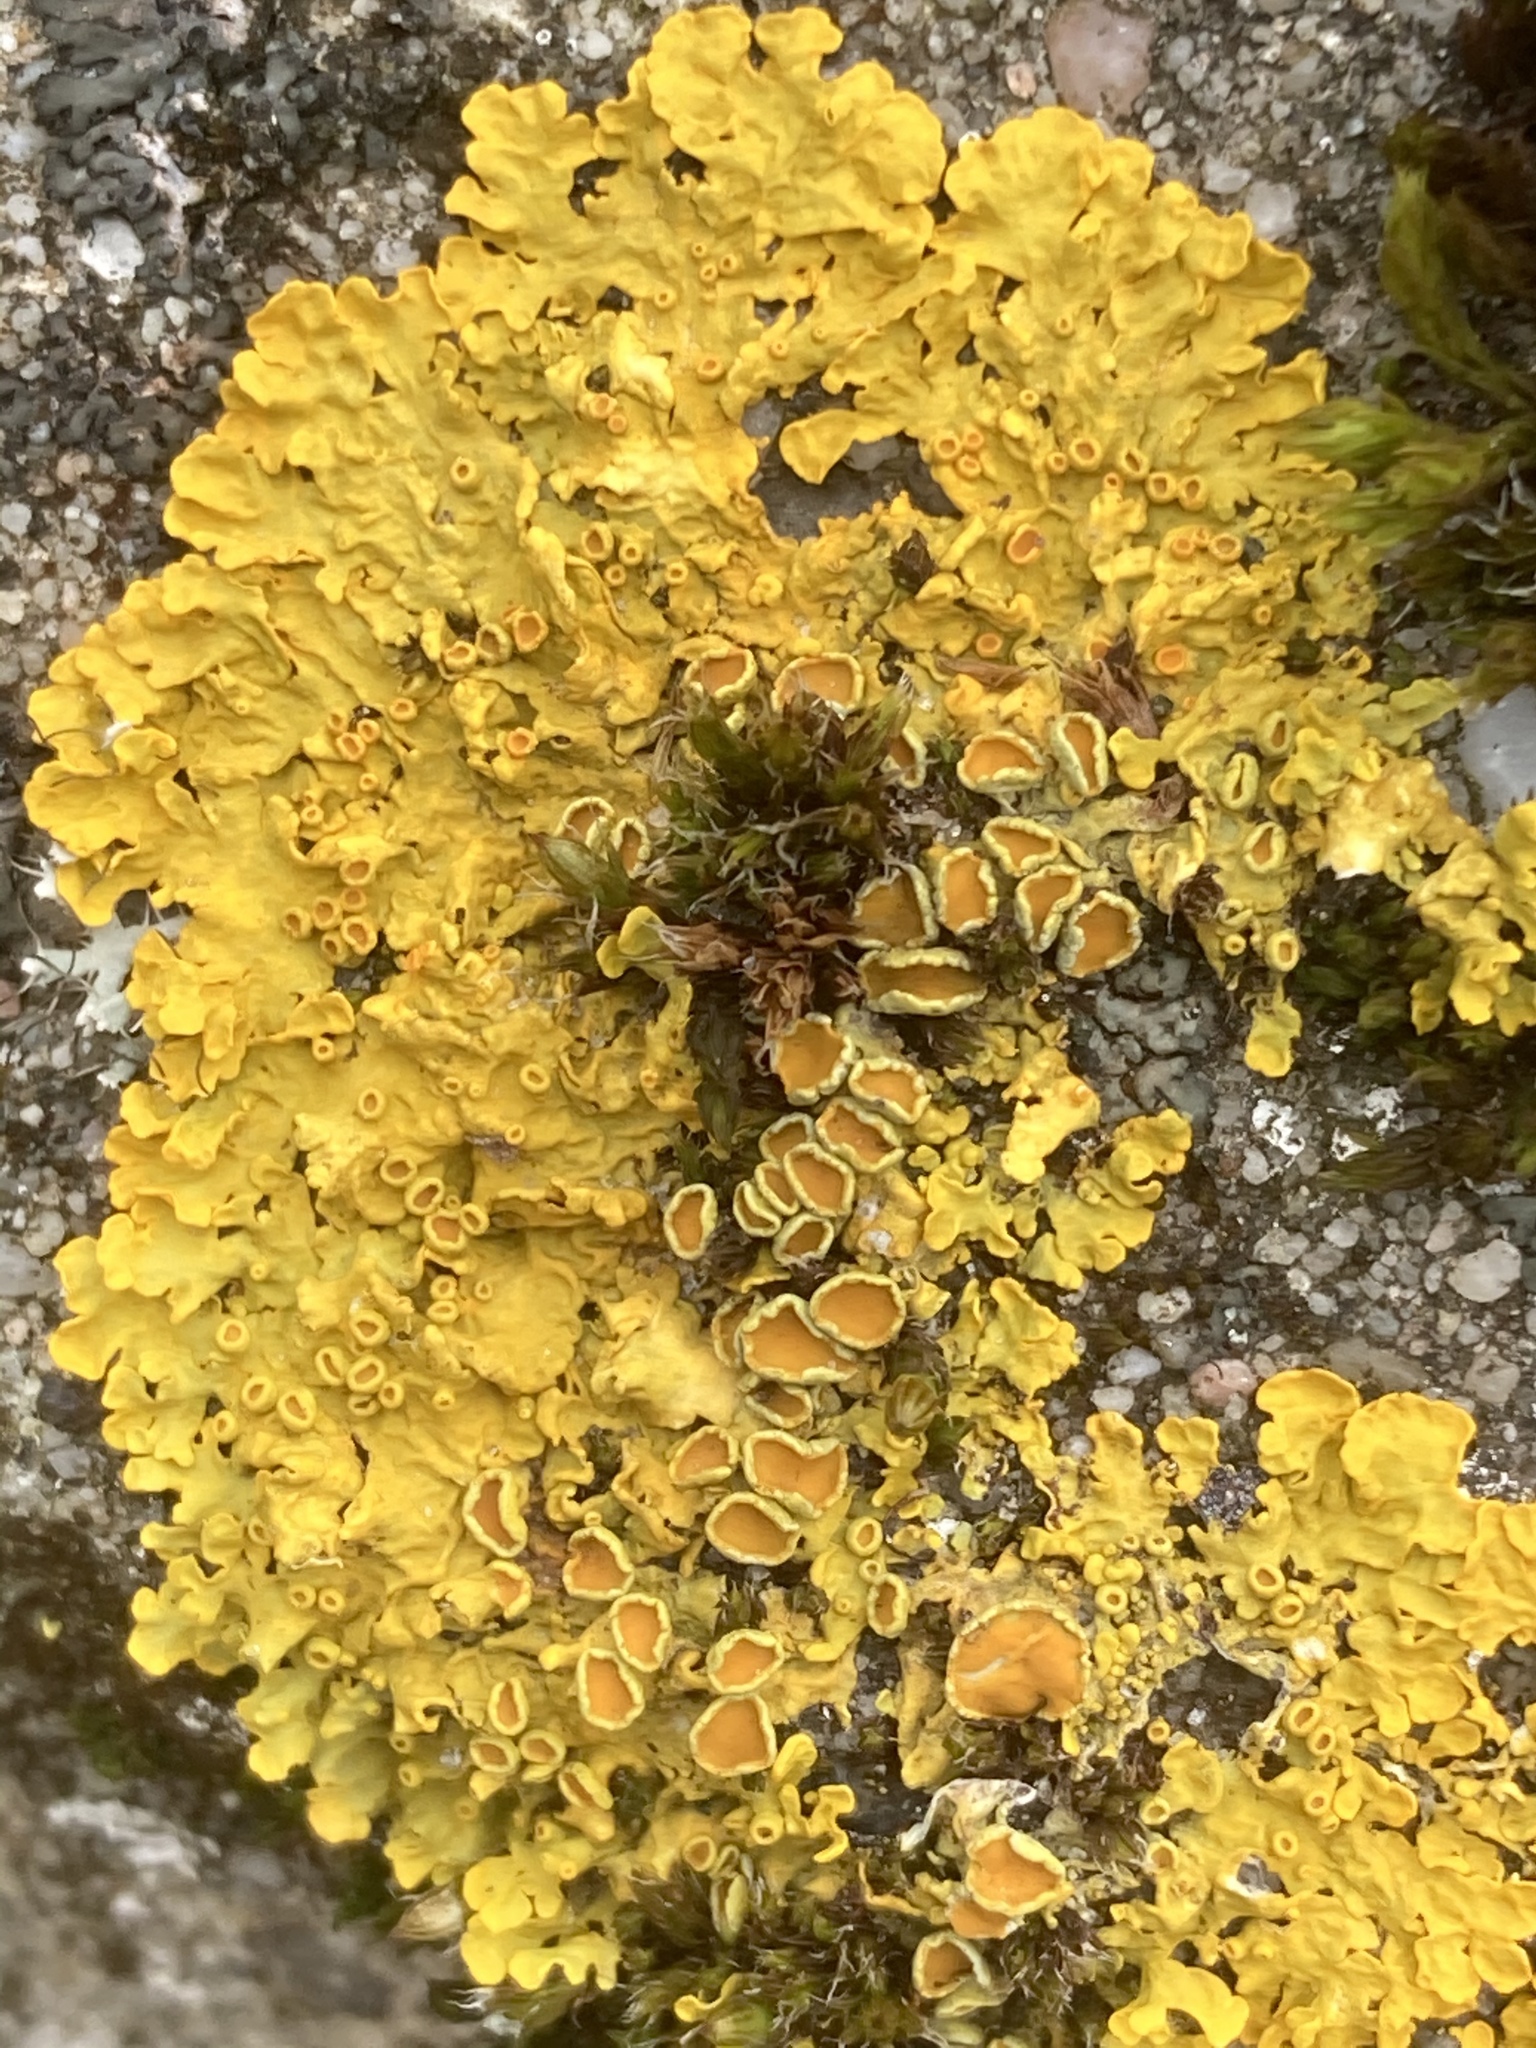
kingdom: Fungi
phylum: Ascomycota
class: Lecanoromycetes
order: Teloschistales
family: Teloschistaceae
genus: Xanthoria
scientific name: Xanthoria parietina
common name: Common orange lichen
